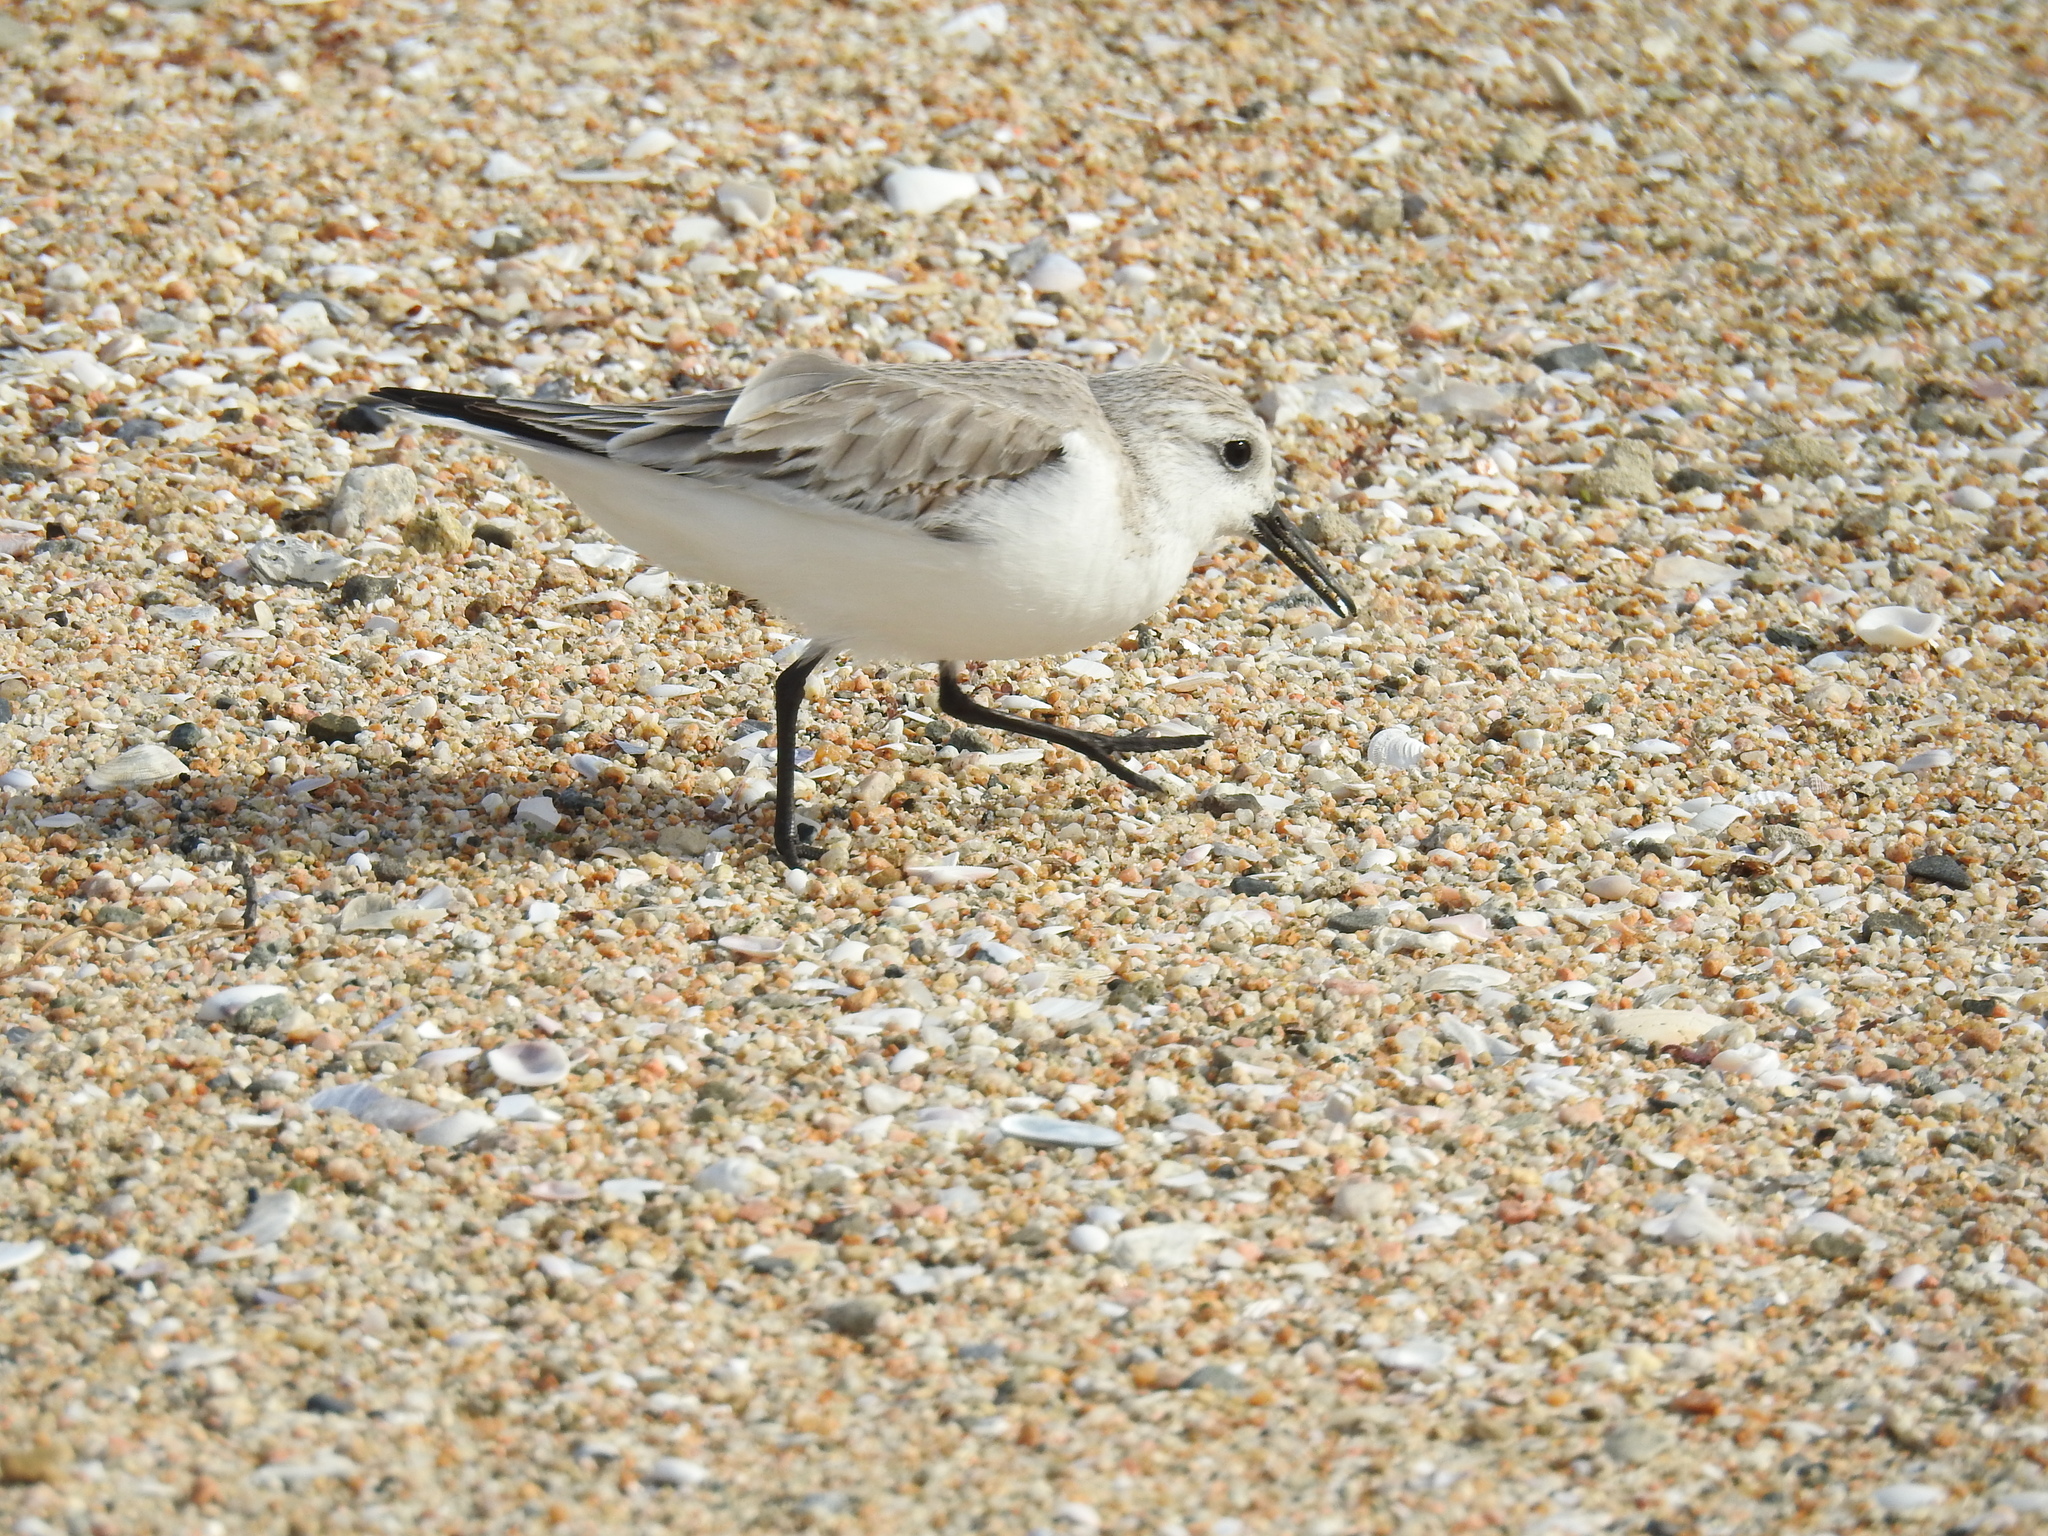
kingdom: Animalia
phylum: Chordata
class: Aves
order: Charadriiformes
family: Scolopacidae
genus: Calidris
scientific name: Calidris alba
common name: Sanderling
